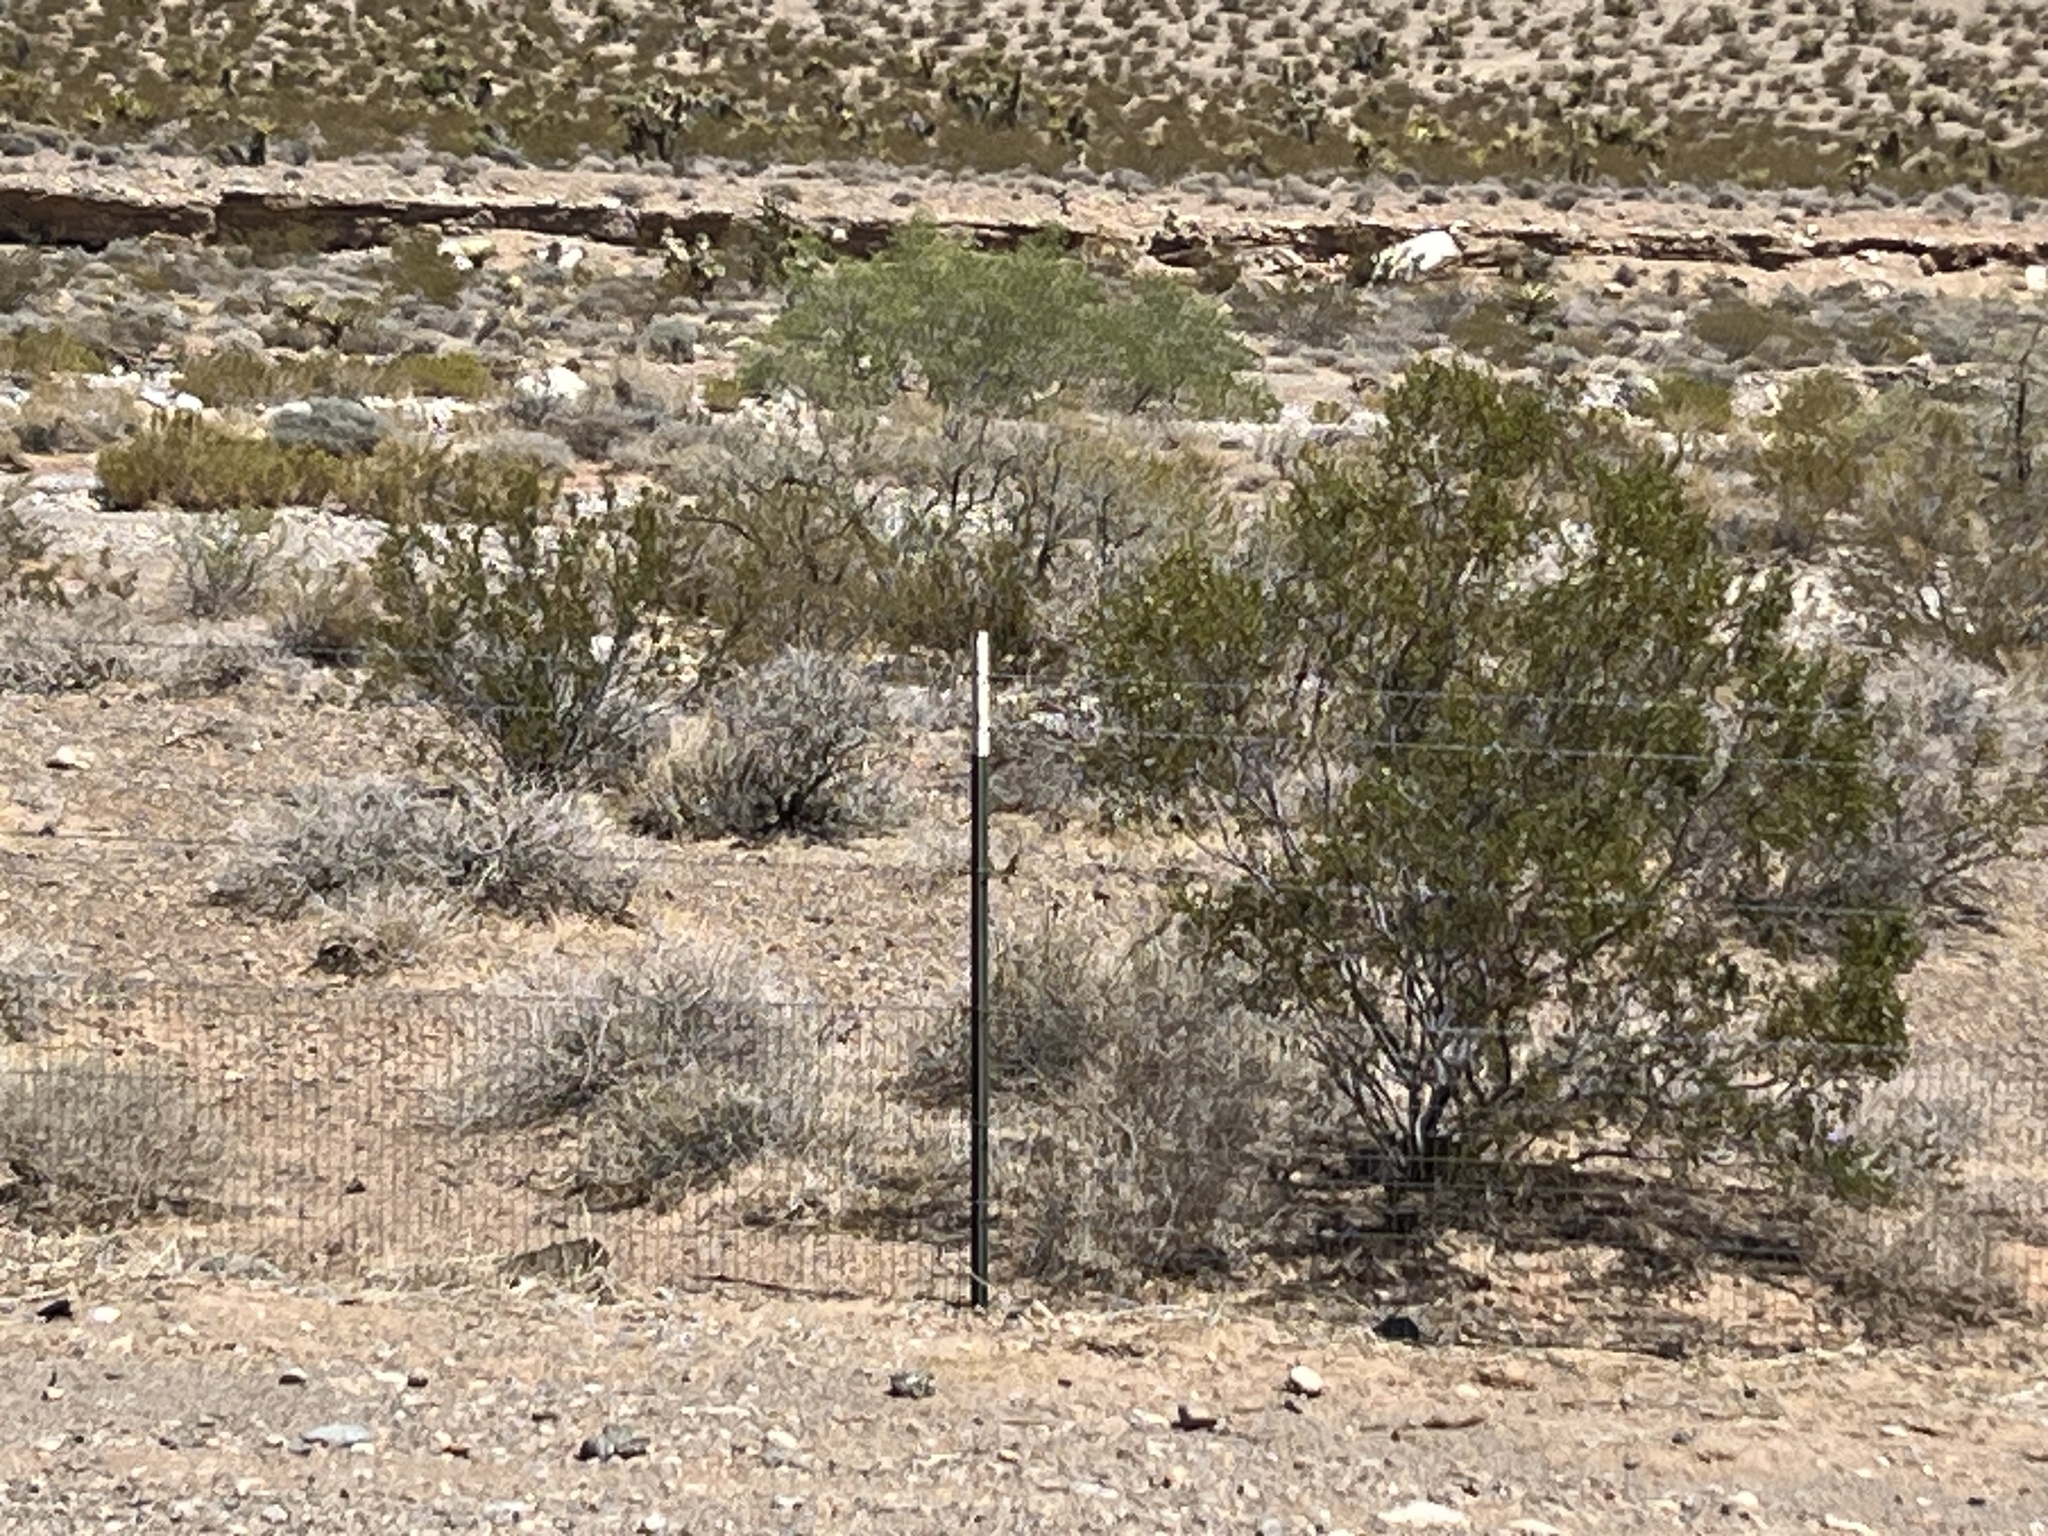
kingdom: Plantae
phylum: Tracheophyta
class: Magnoliopsida
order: Zygophyllales
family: Zygophyllaceae
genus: Larrea
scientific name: Larrea tridentata
